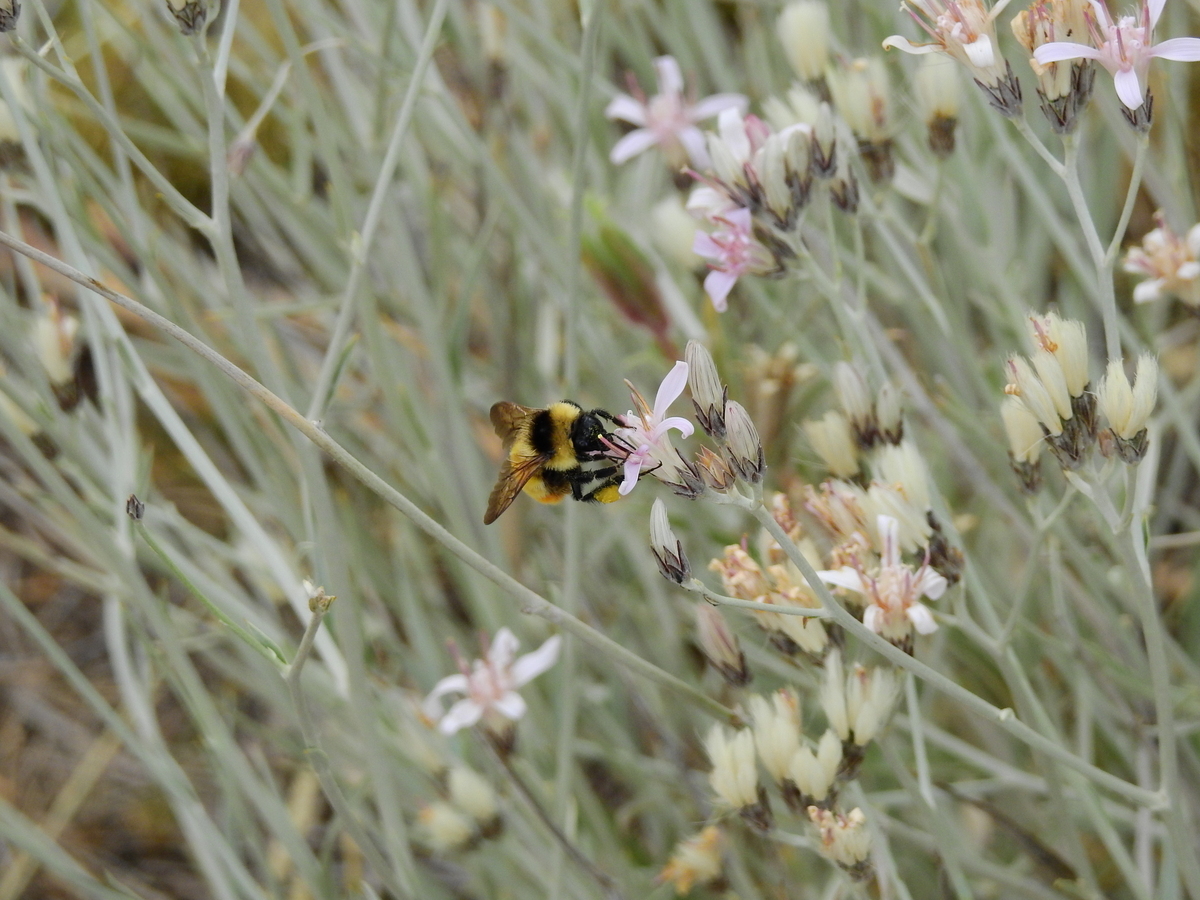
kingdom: Animalia
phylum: Arthropoda
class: Insecta
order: Hymenoptera
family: Apidae
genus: Bombus
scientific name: Bombus opifex
